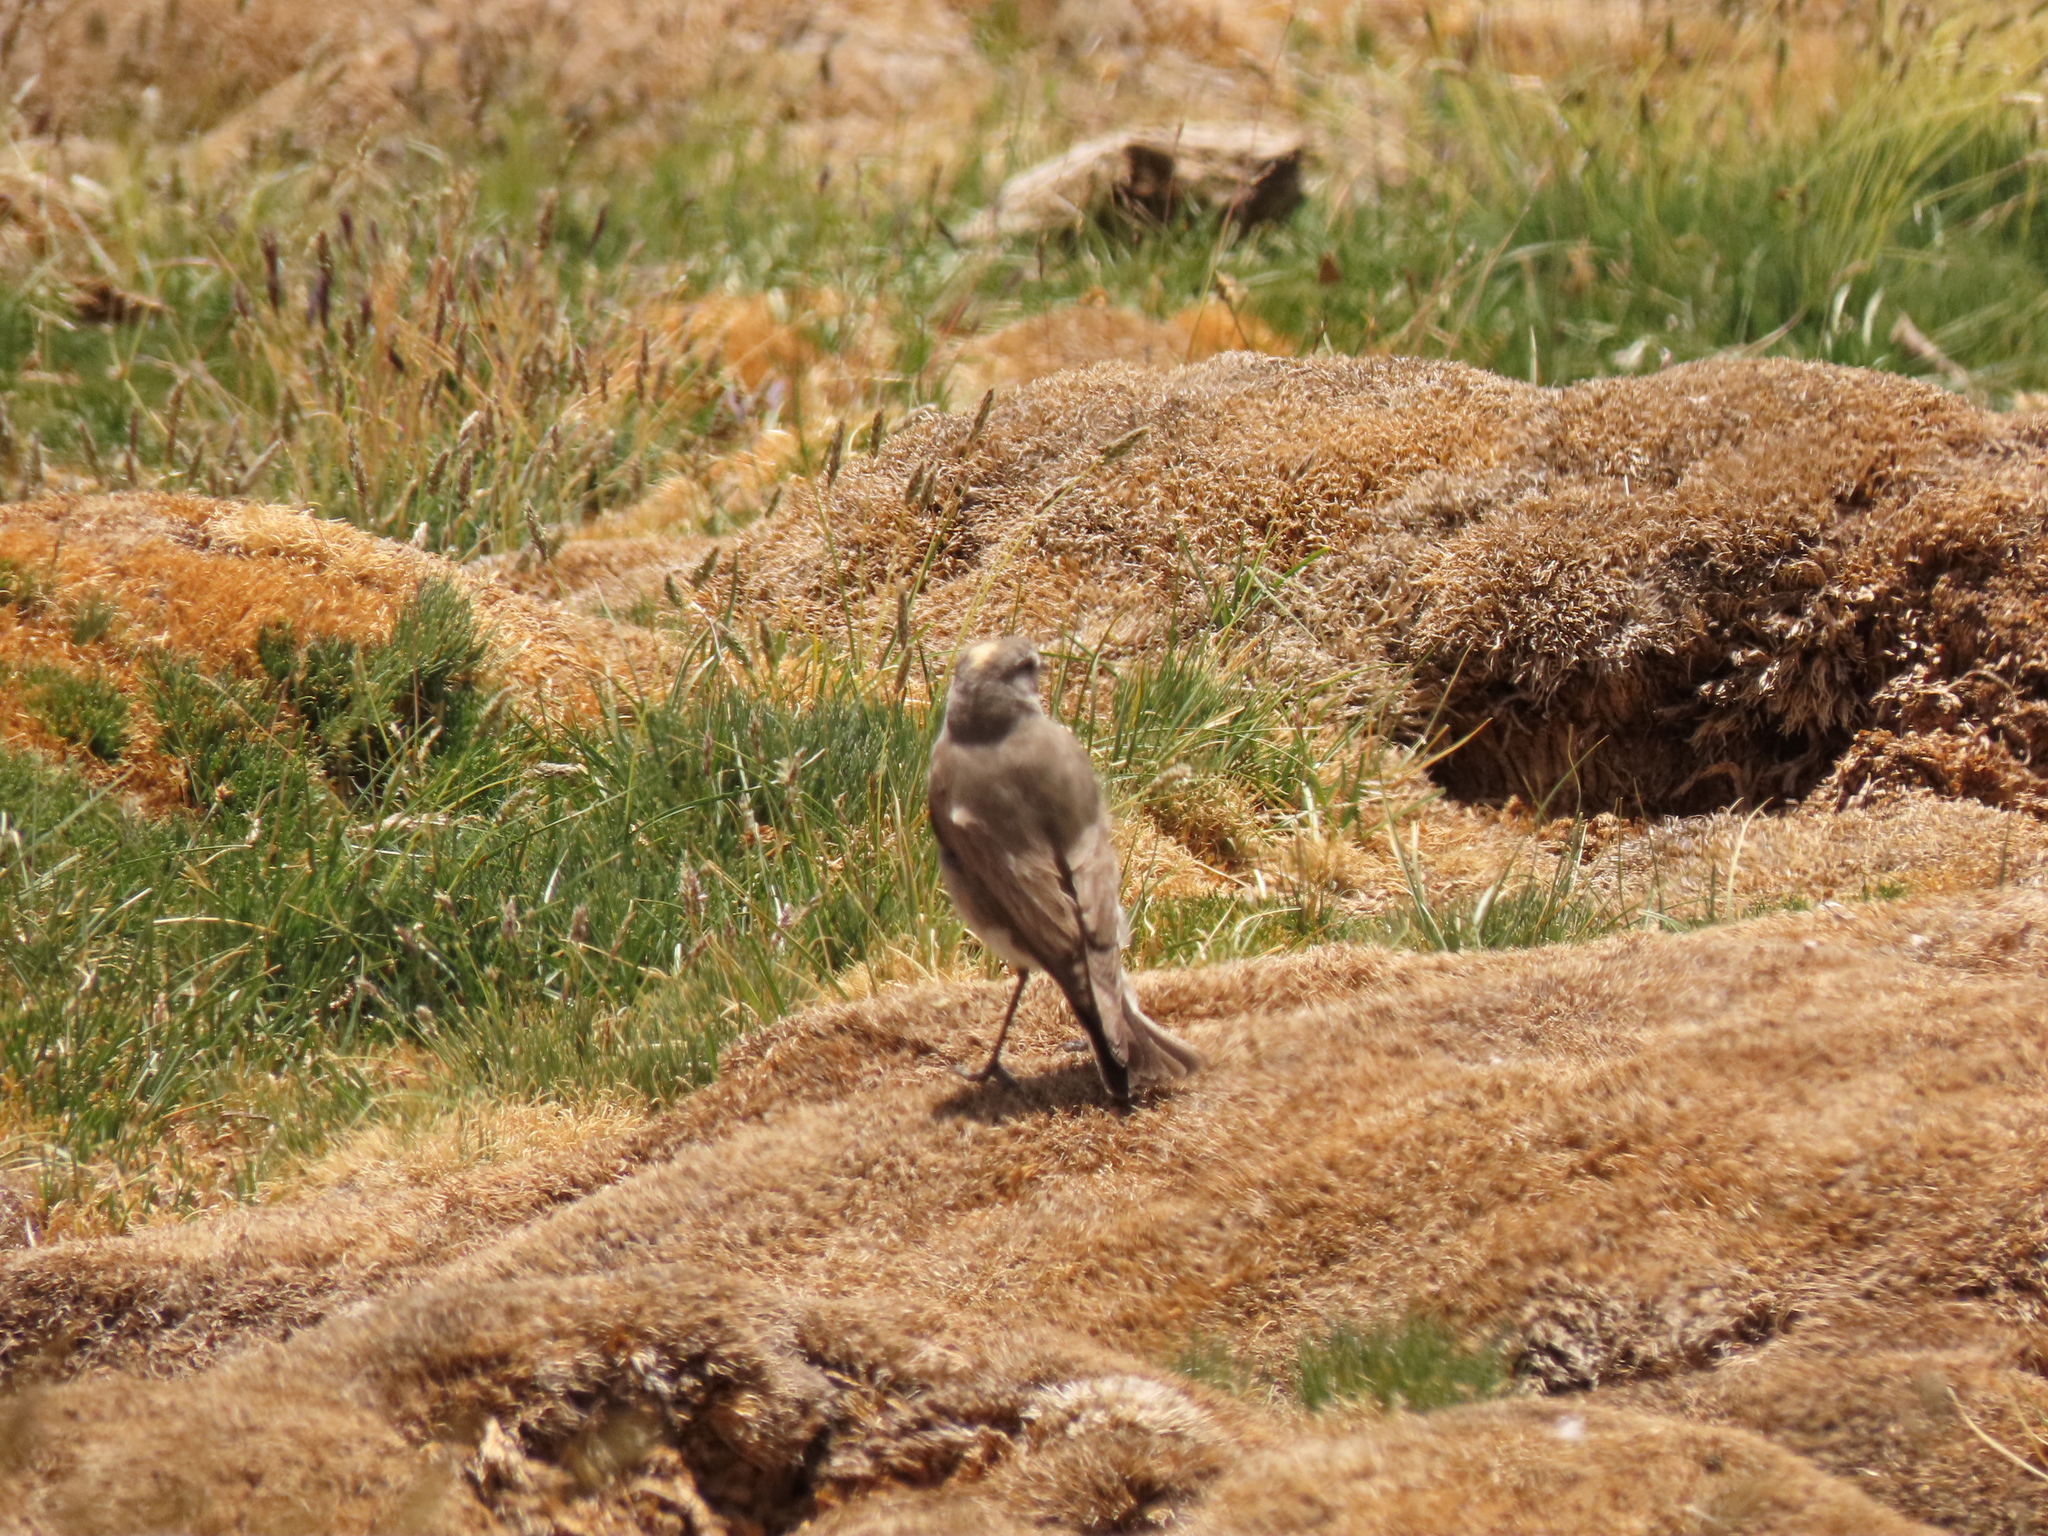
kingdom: Animalia
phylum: Chordata
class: Aves
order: Passeriformes
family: Furnariidae
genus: Geositta
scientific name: Geositta isabellina
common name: Creamy-rumped miner
